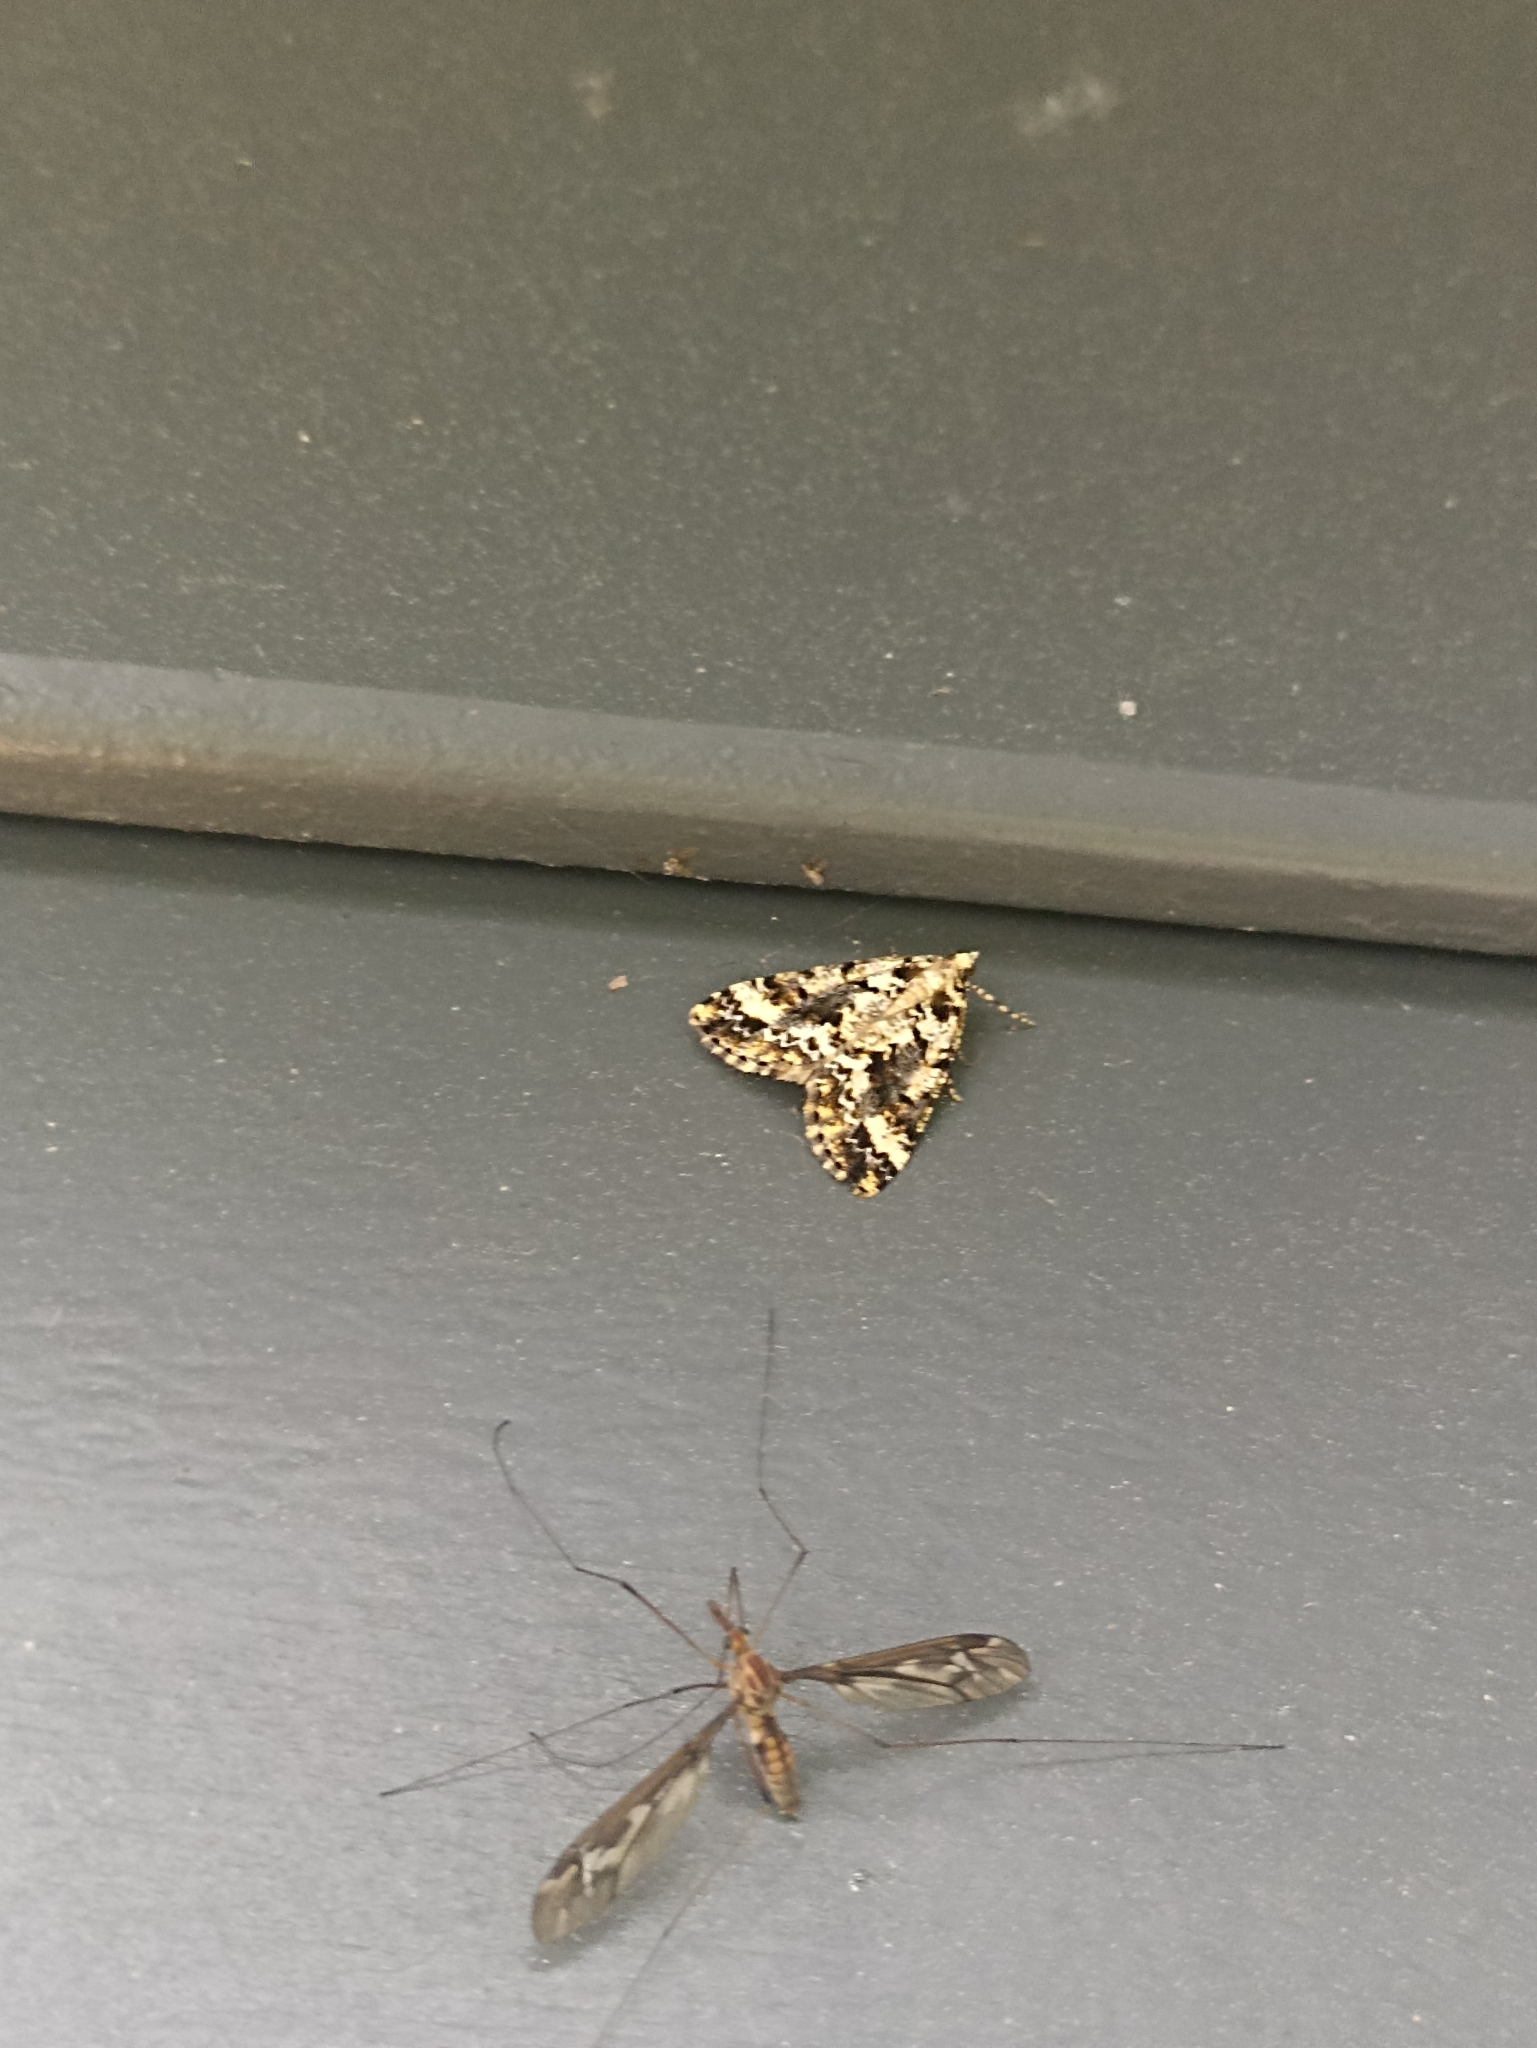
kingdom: Animalia
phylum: Arthropoda
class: Insecta
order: Lepidoptera
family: Geometridae
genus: Pseudocoremia
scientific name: Pseudocoremia leucelaea
